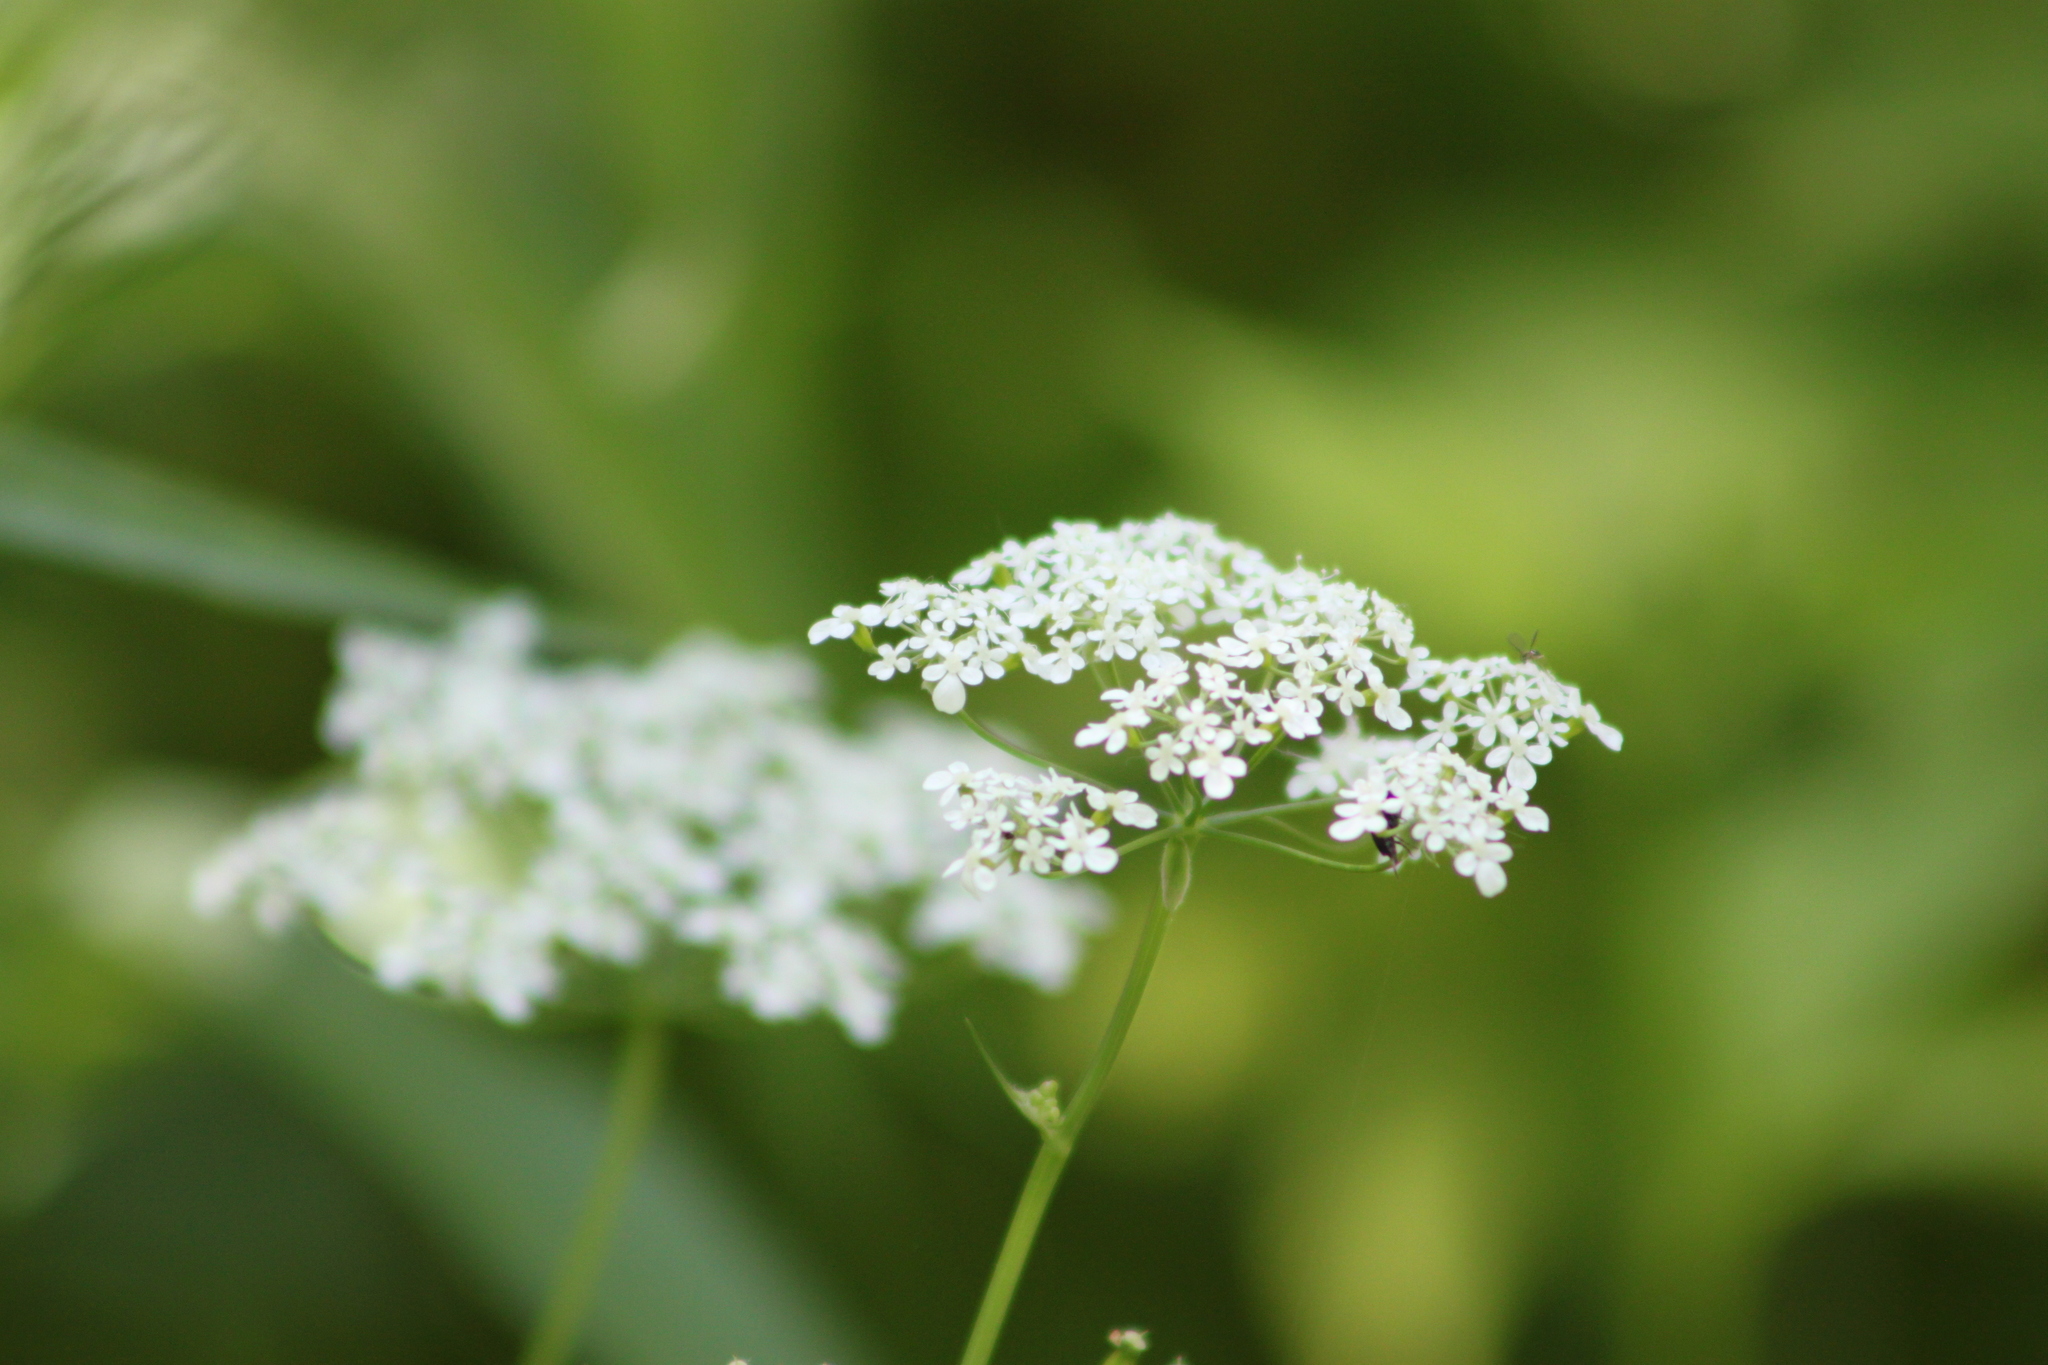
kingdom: Plantae
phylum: Tracheophyta
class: Magnoliopsida
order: Apiales
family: Apiaceae
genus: Anthriscus
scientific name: Anthriscus sylvestris
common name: Cow parsley
